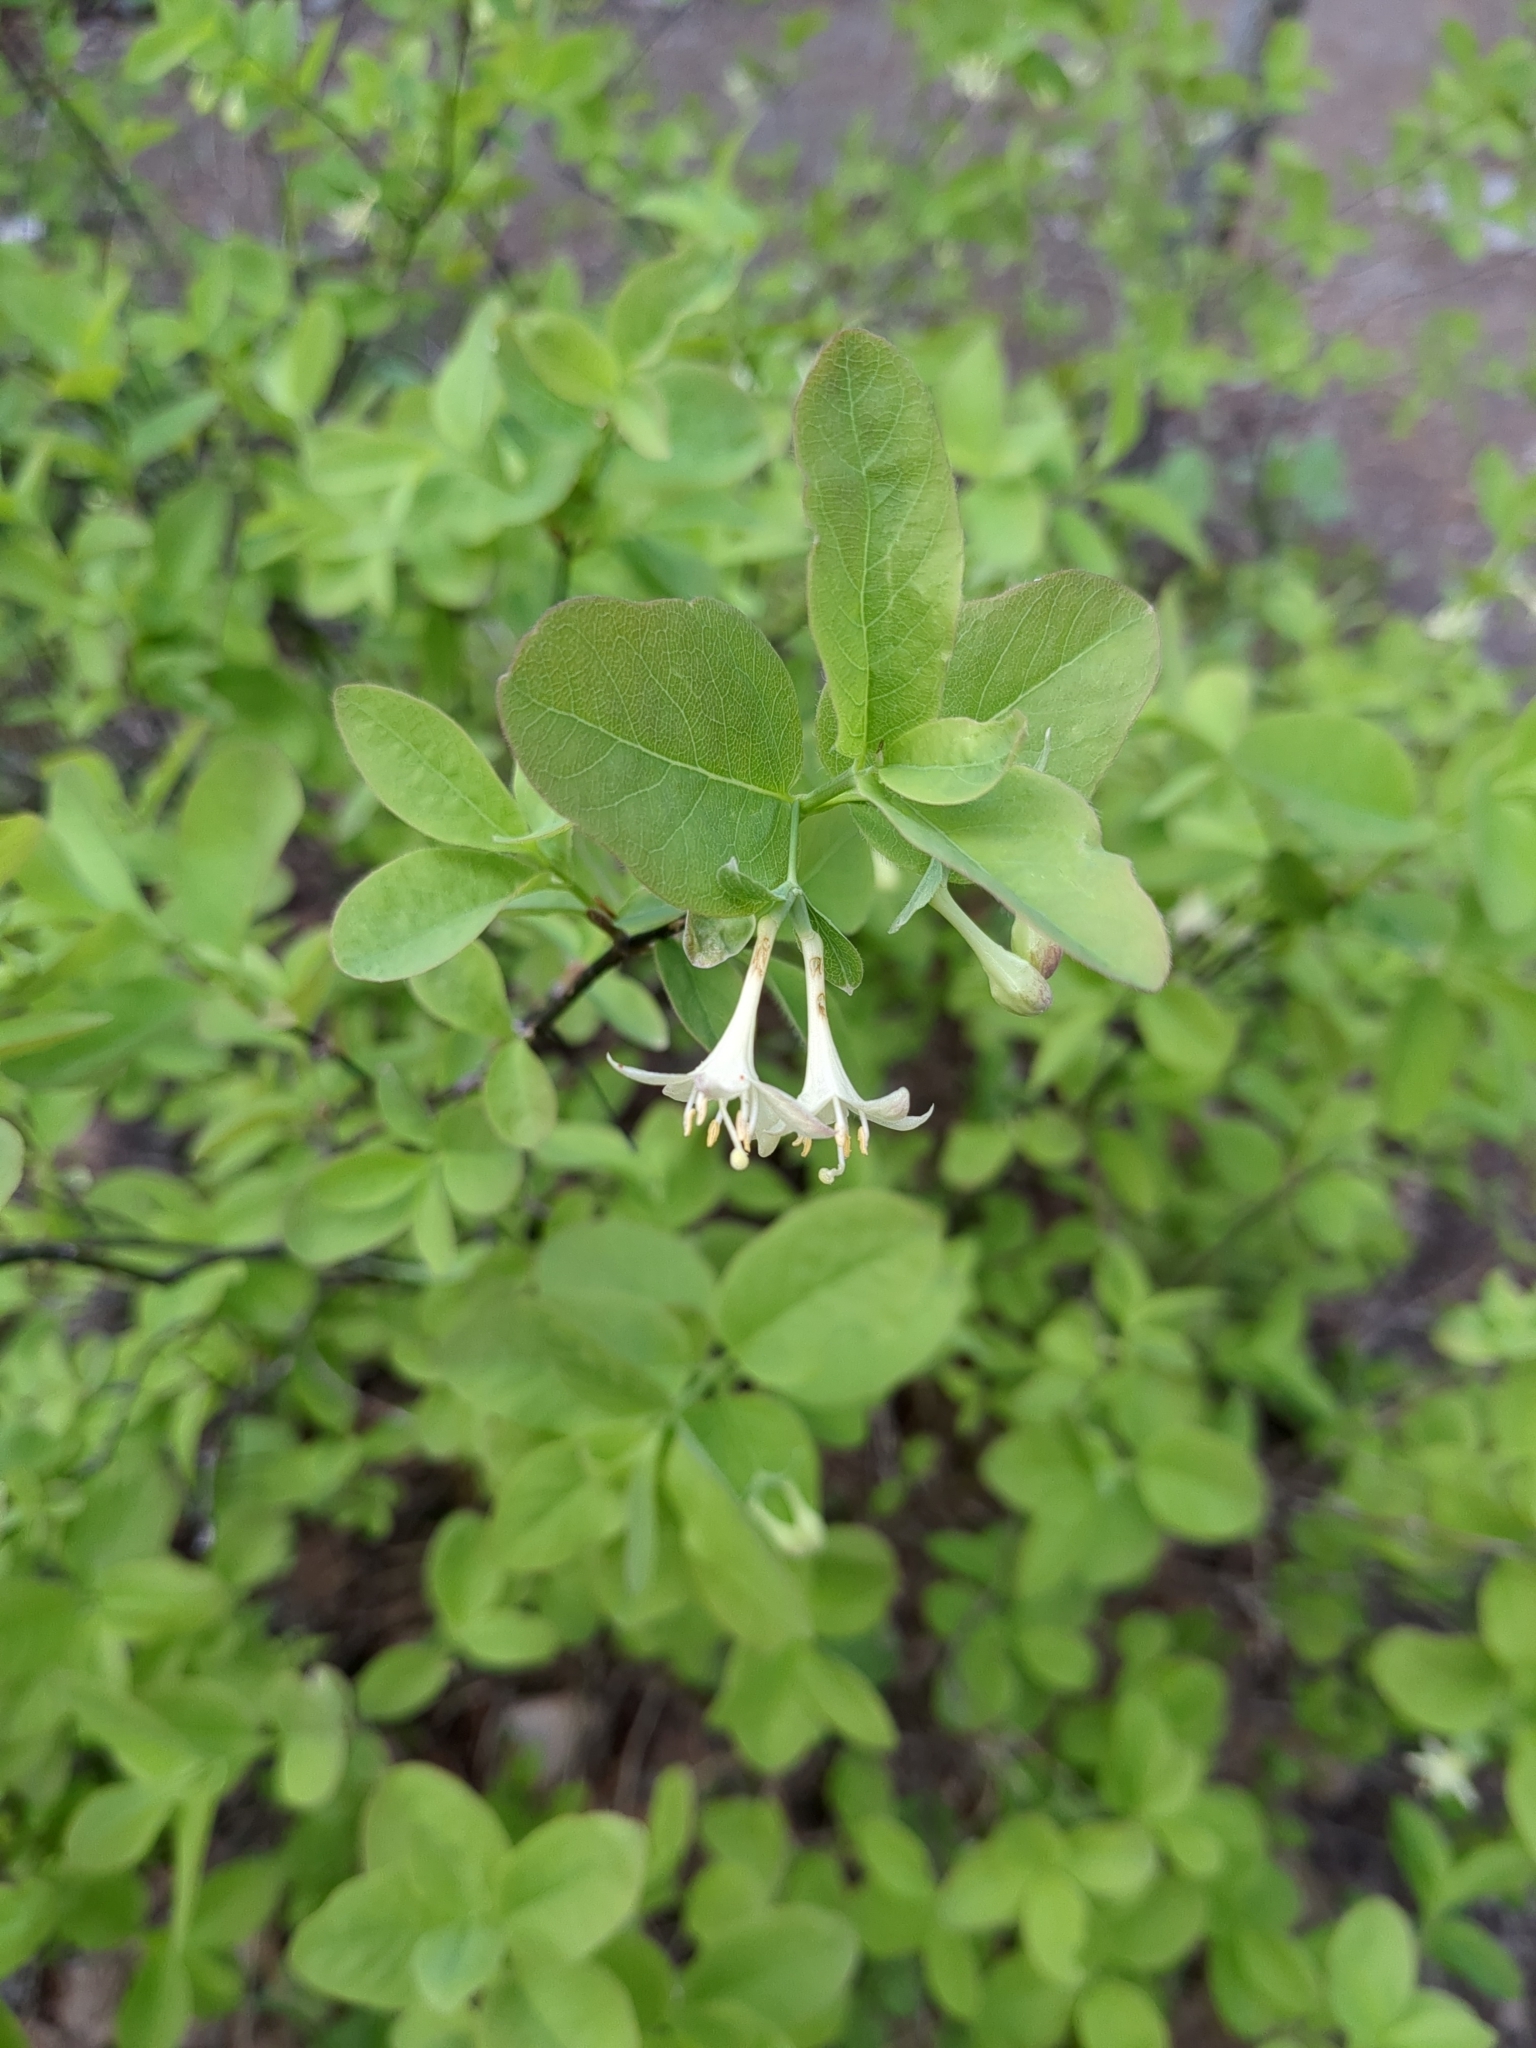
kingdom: Plantae
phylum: Tracheophyta
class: Magnoliopsida
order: Dipsacales
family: Caprifoliaceae
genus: Lonicera
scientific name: Lonicera utahensis
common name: Utah honeysuckle
